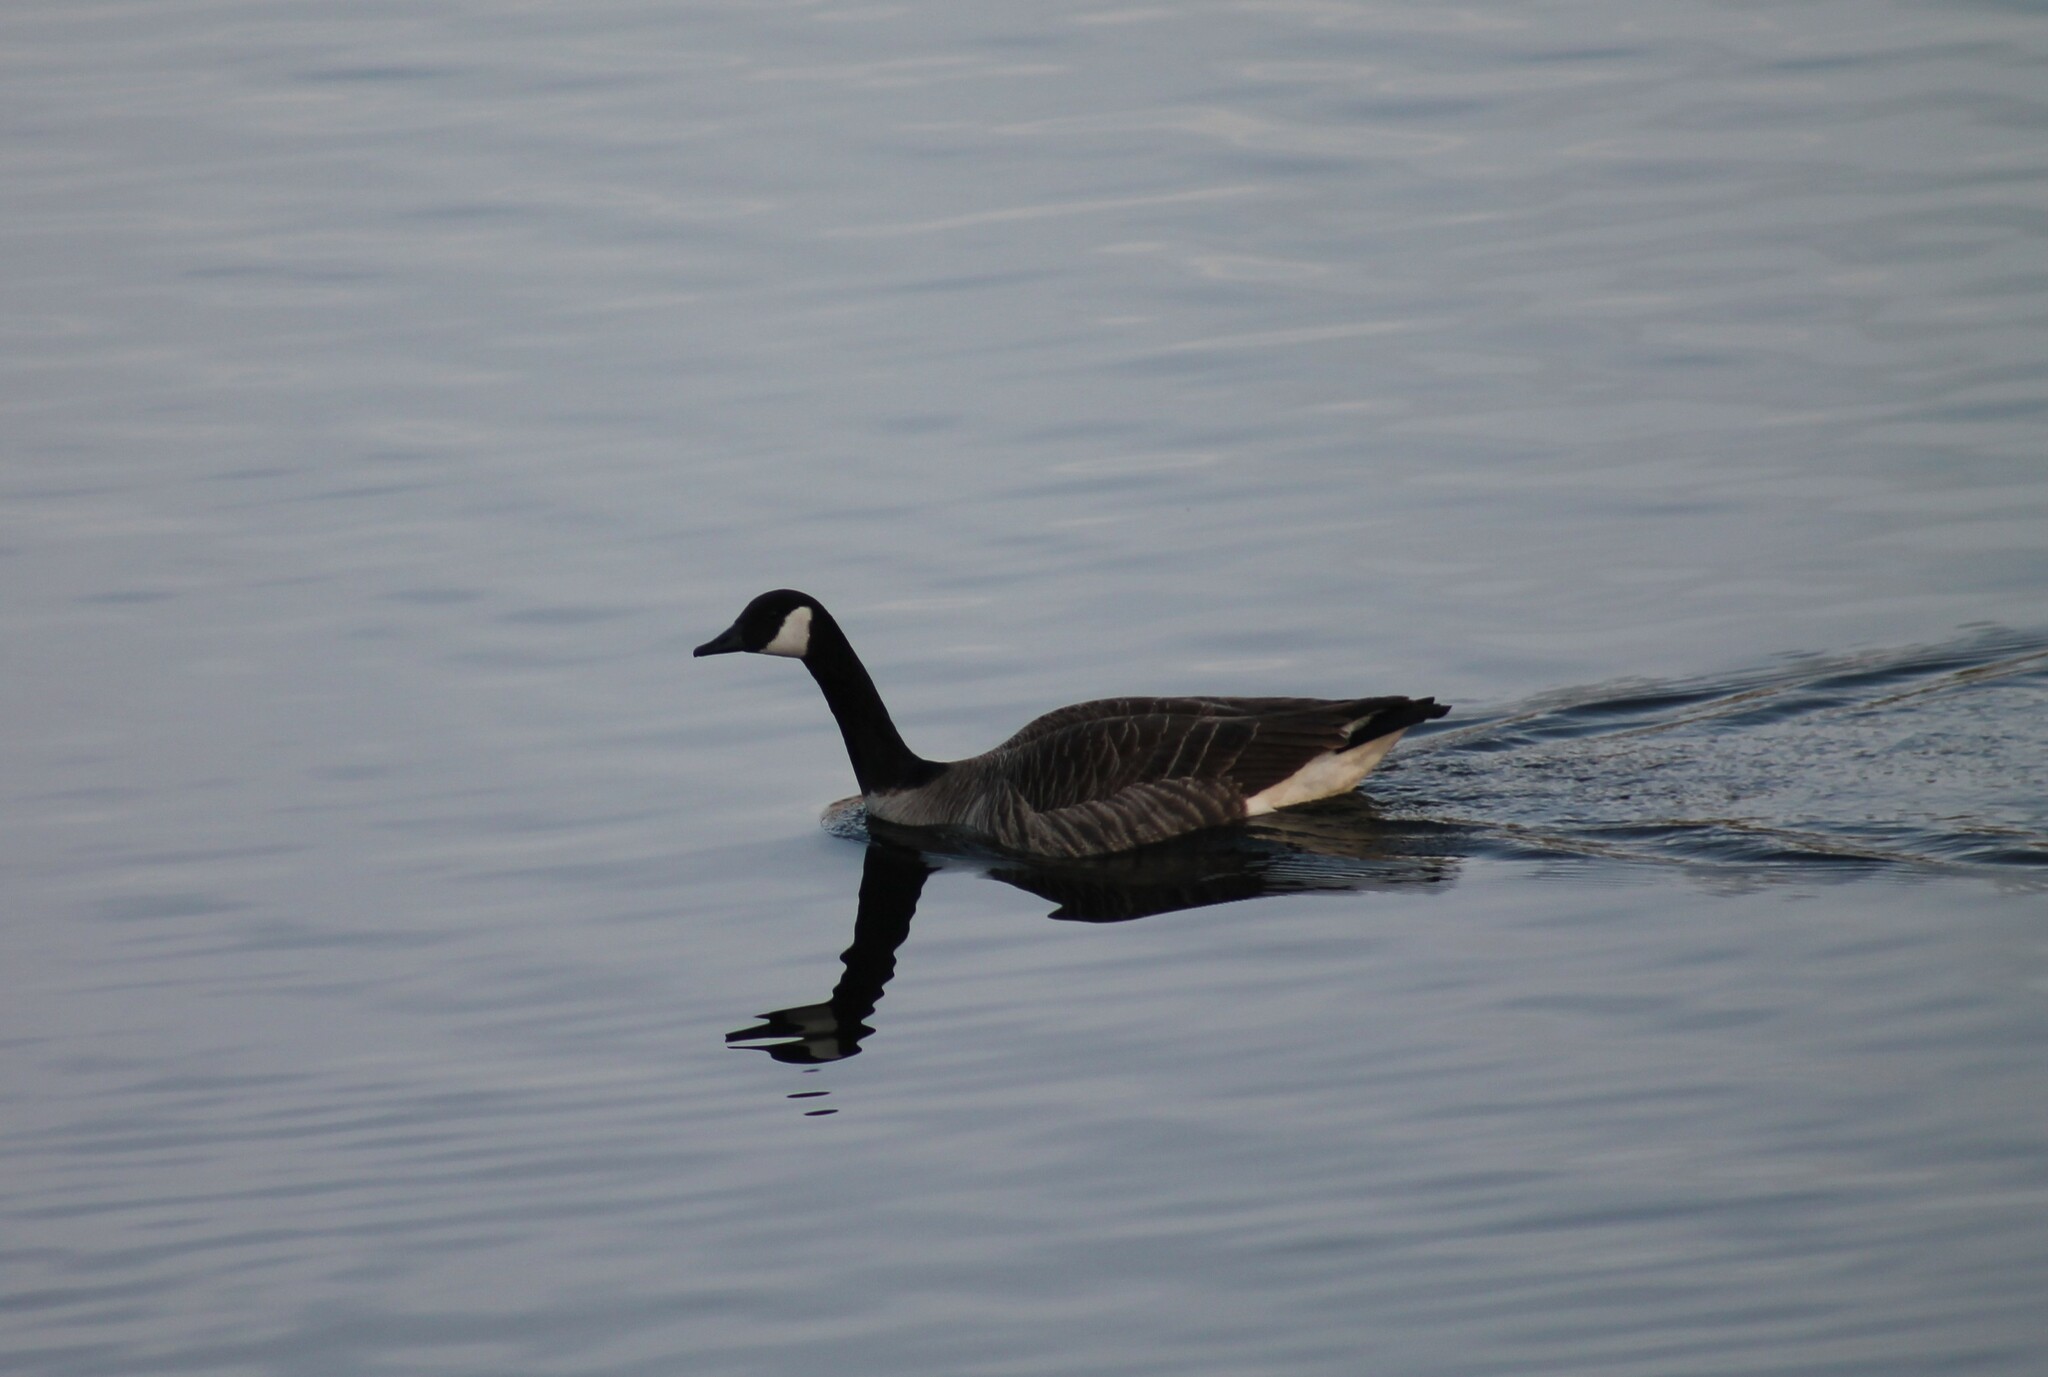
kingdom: Animalia
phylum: Chordata
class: Aves
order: Anseriformes
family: Anatidae
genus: Branta
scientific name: Branta canadensis
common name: Canada goose
